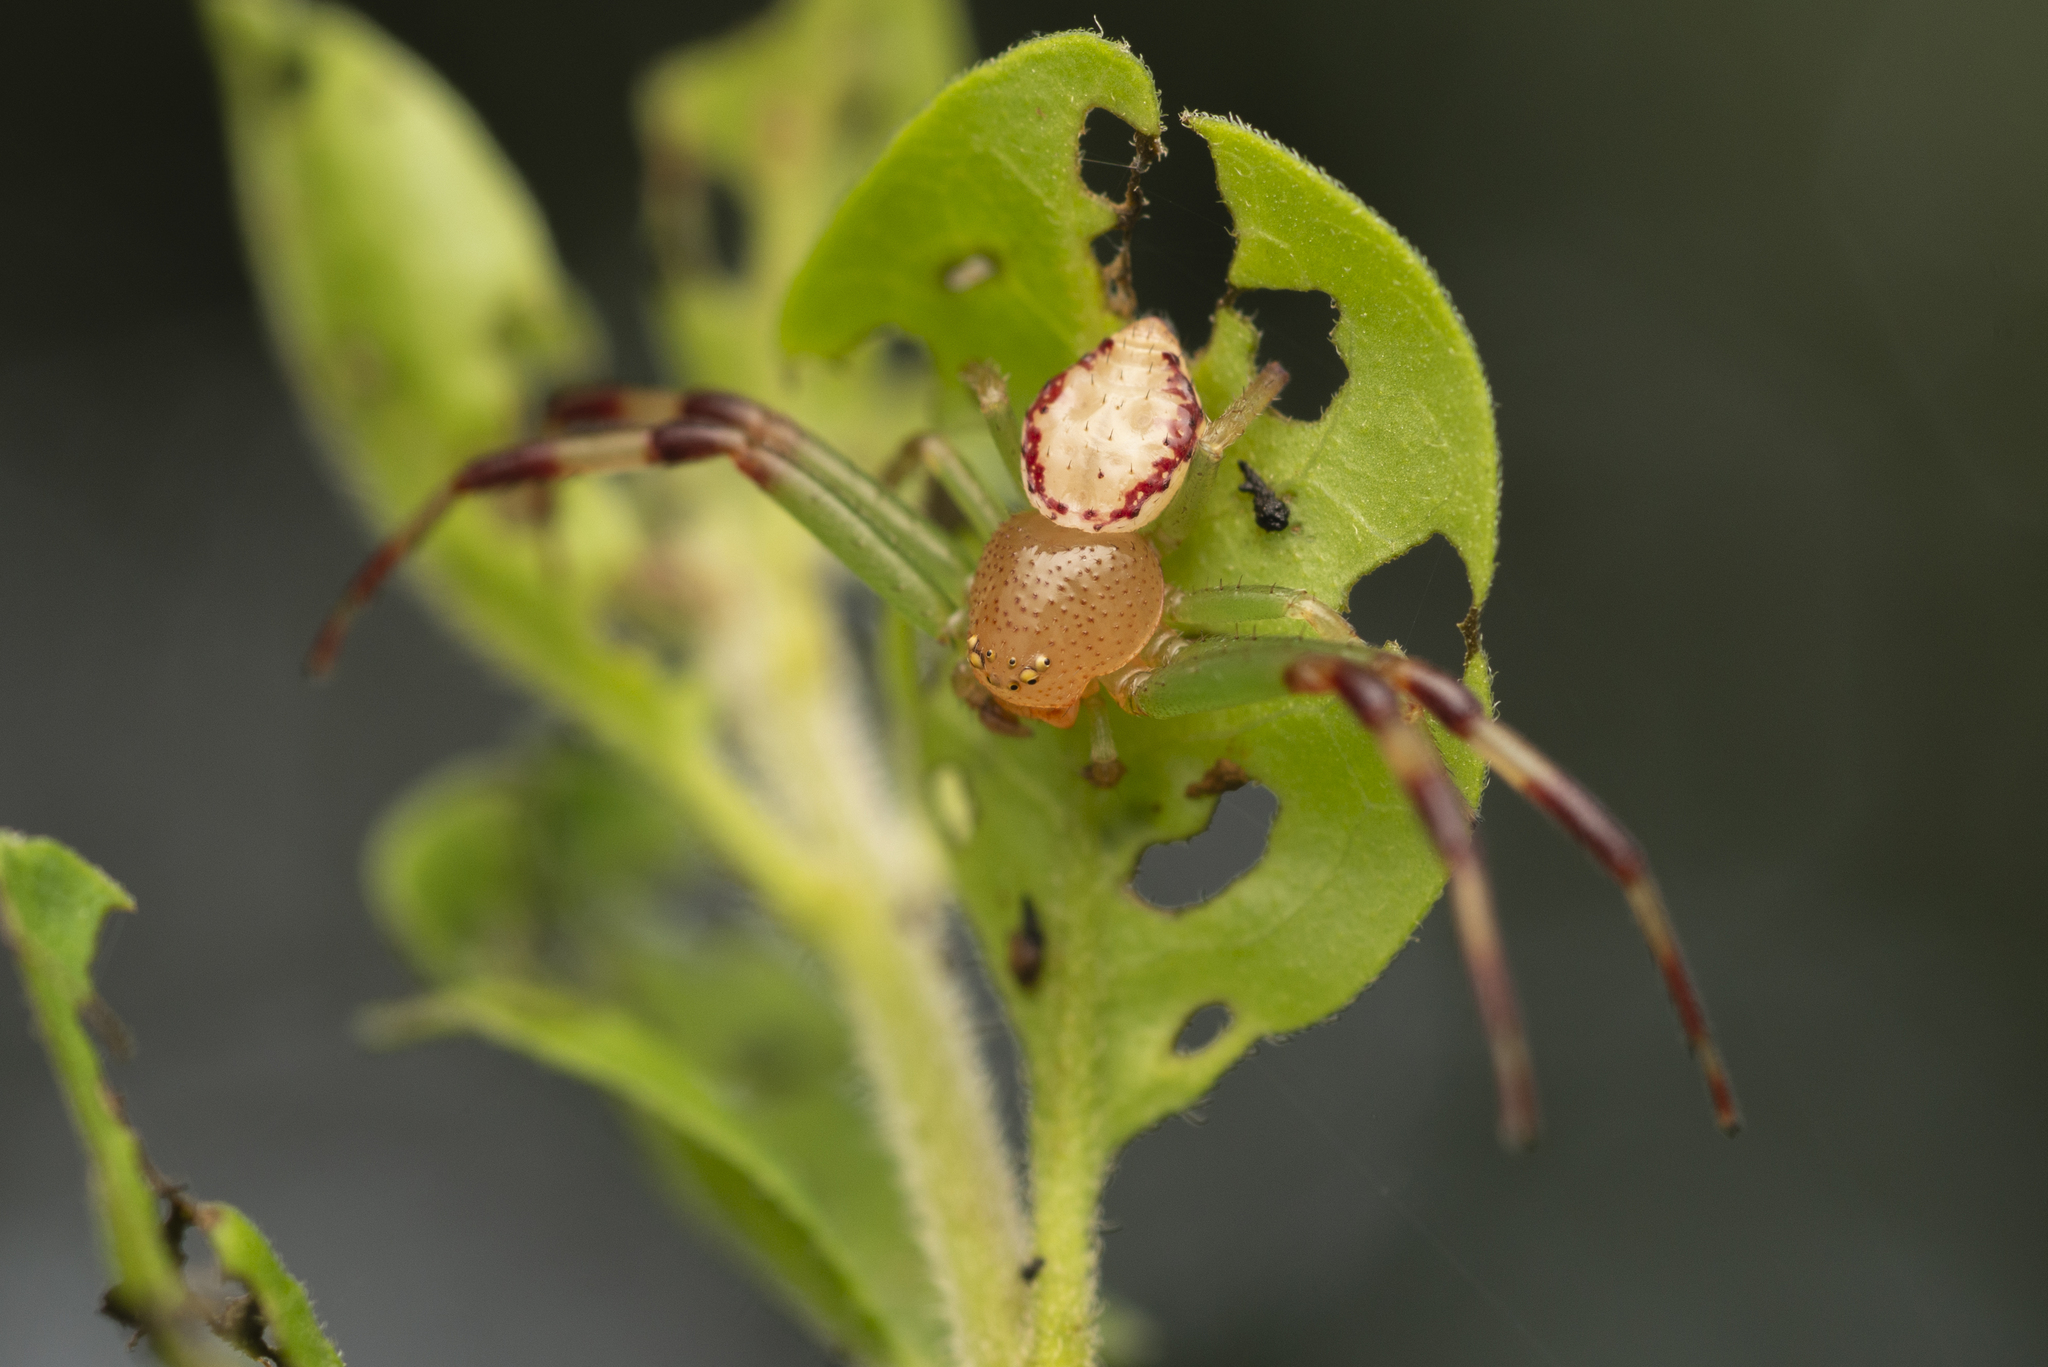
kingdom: Animalia
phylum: Arthropoda
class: Arachnida
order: Araneae
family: Thomisidae
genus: Diaea
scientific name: Diaea simplex
